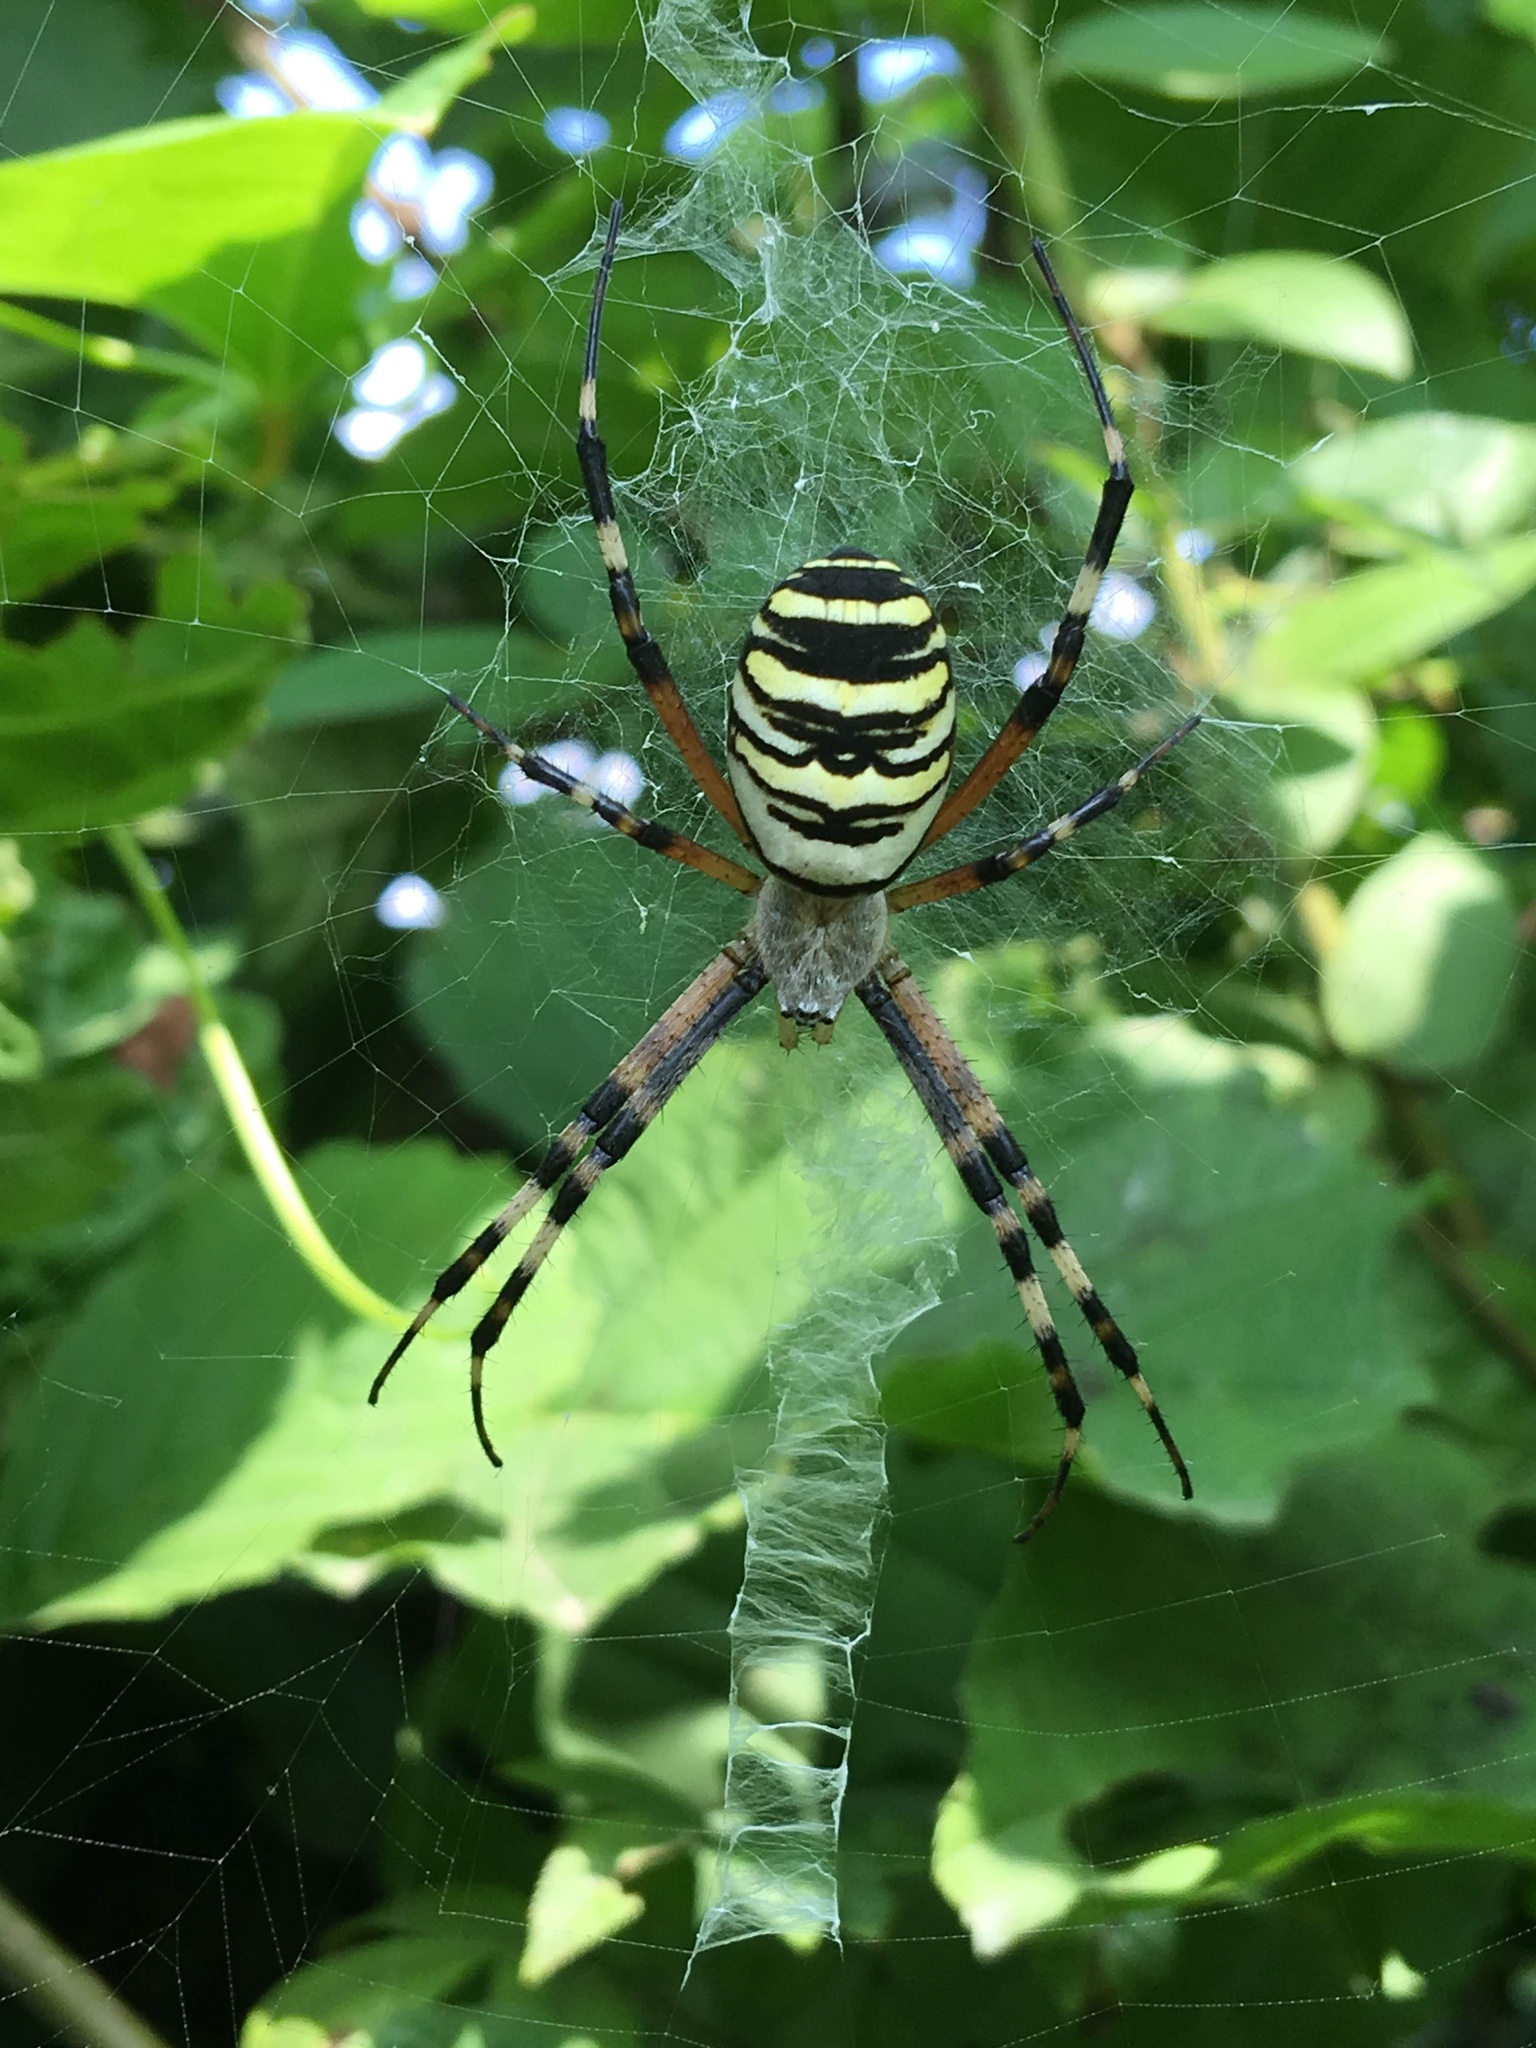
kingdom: Animalia
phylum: Arthropoda
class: Arachnida
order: Araneae
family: Araneidae
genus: Argiope
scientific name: Argiope bruennichi
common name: Wasp spider
